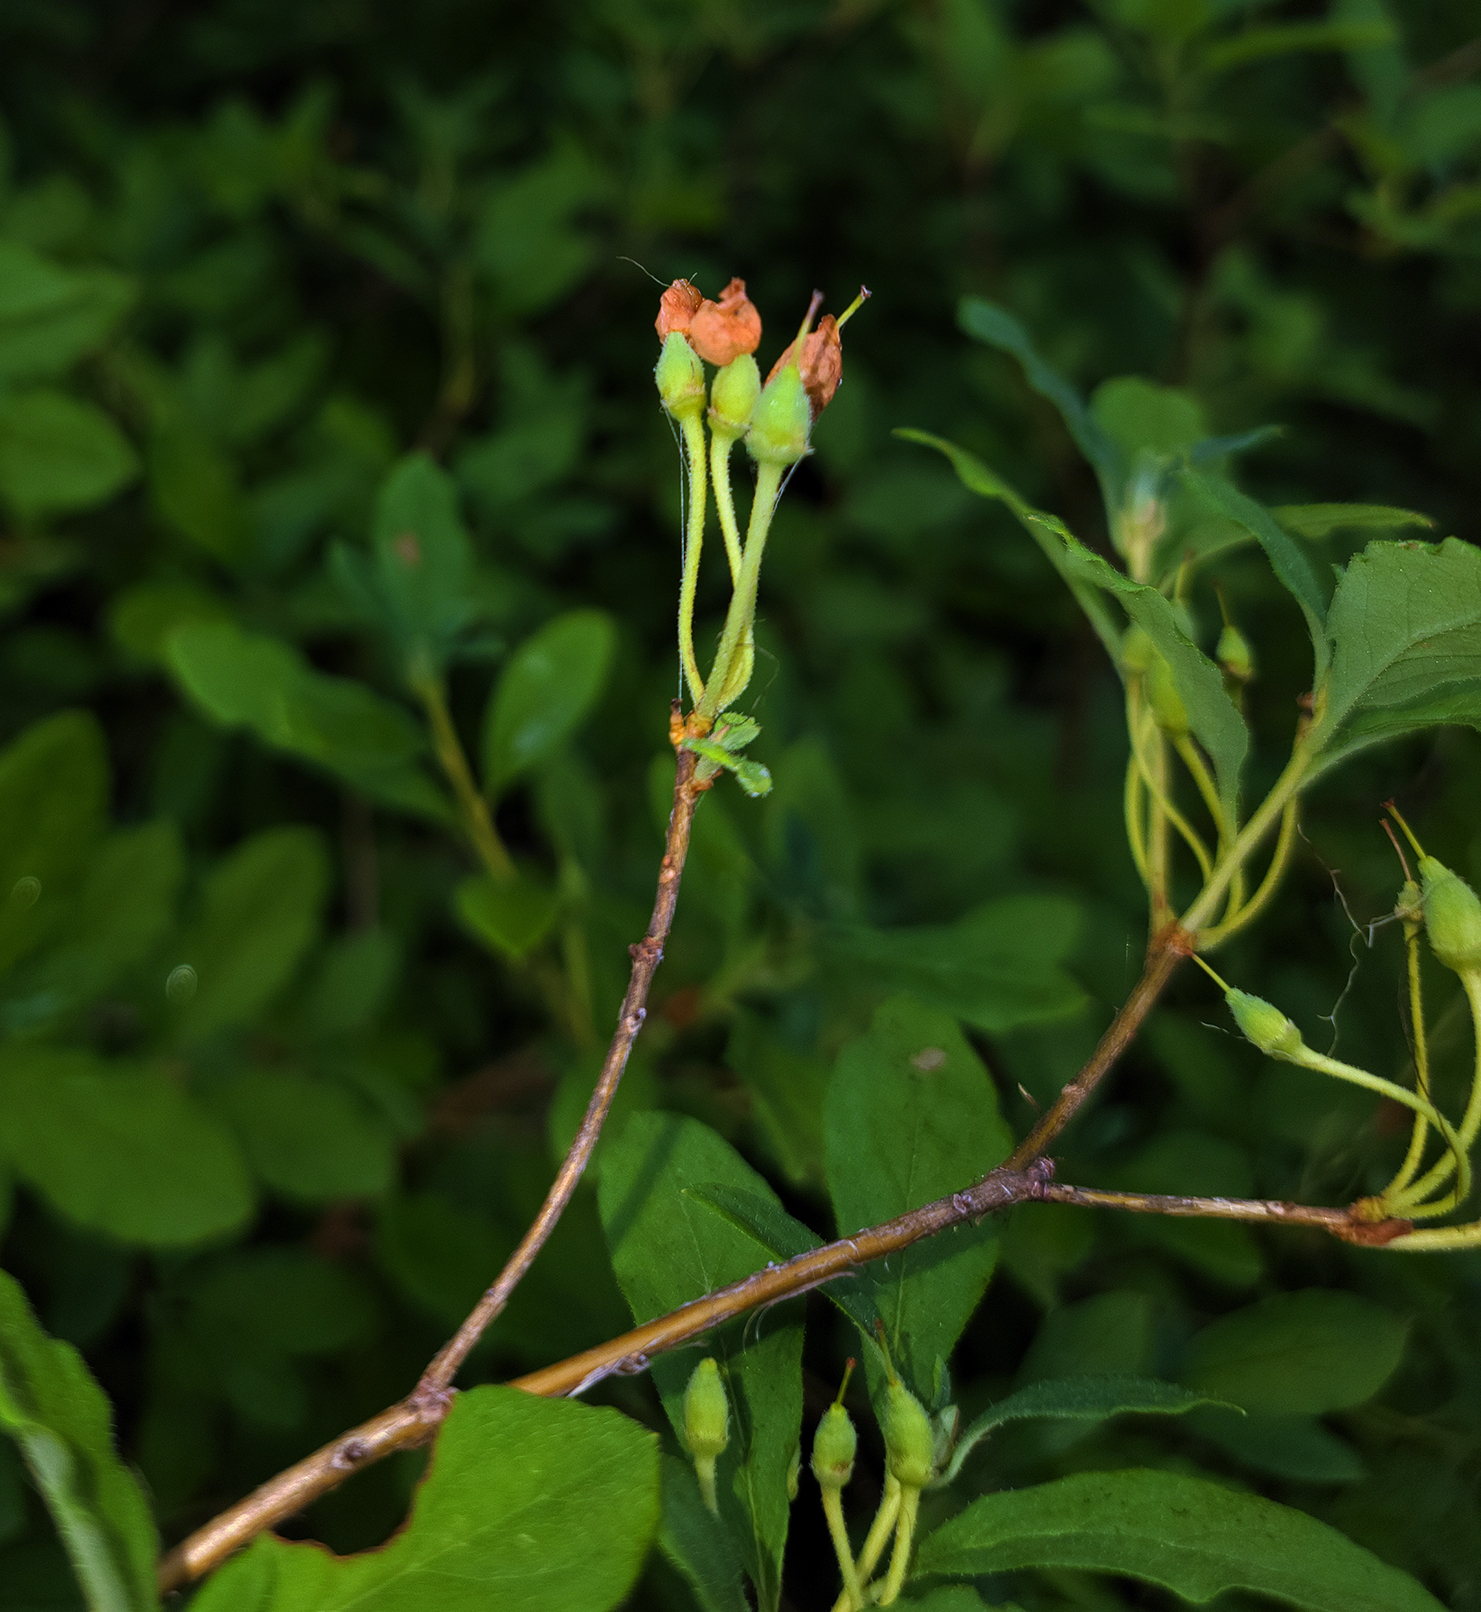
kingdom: Plantae
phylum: Tracheophyta
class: Magnoliopsida
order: Ericales
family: Ericaceae
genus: Rhododendron
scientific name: Rhododendron menziesii
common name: Pacific menziesia
